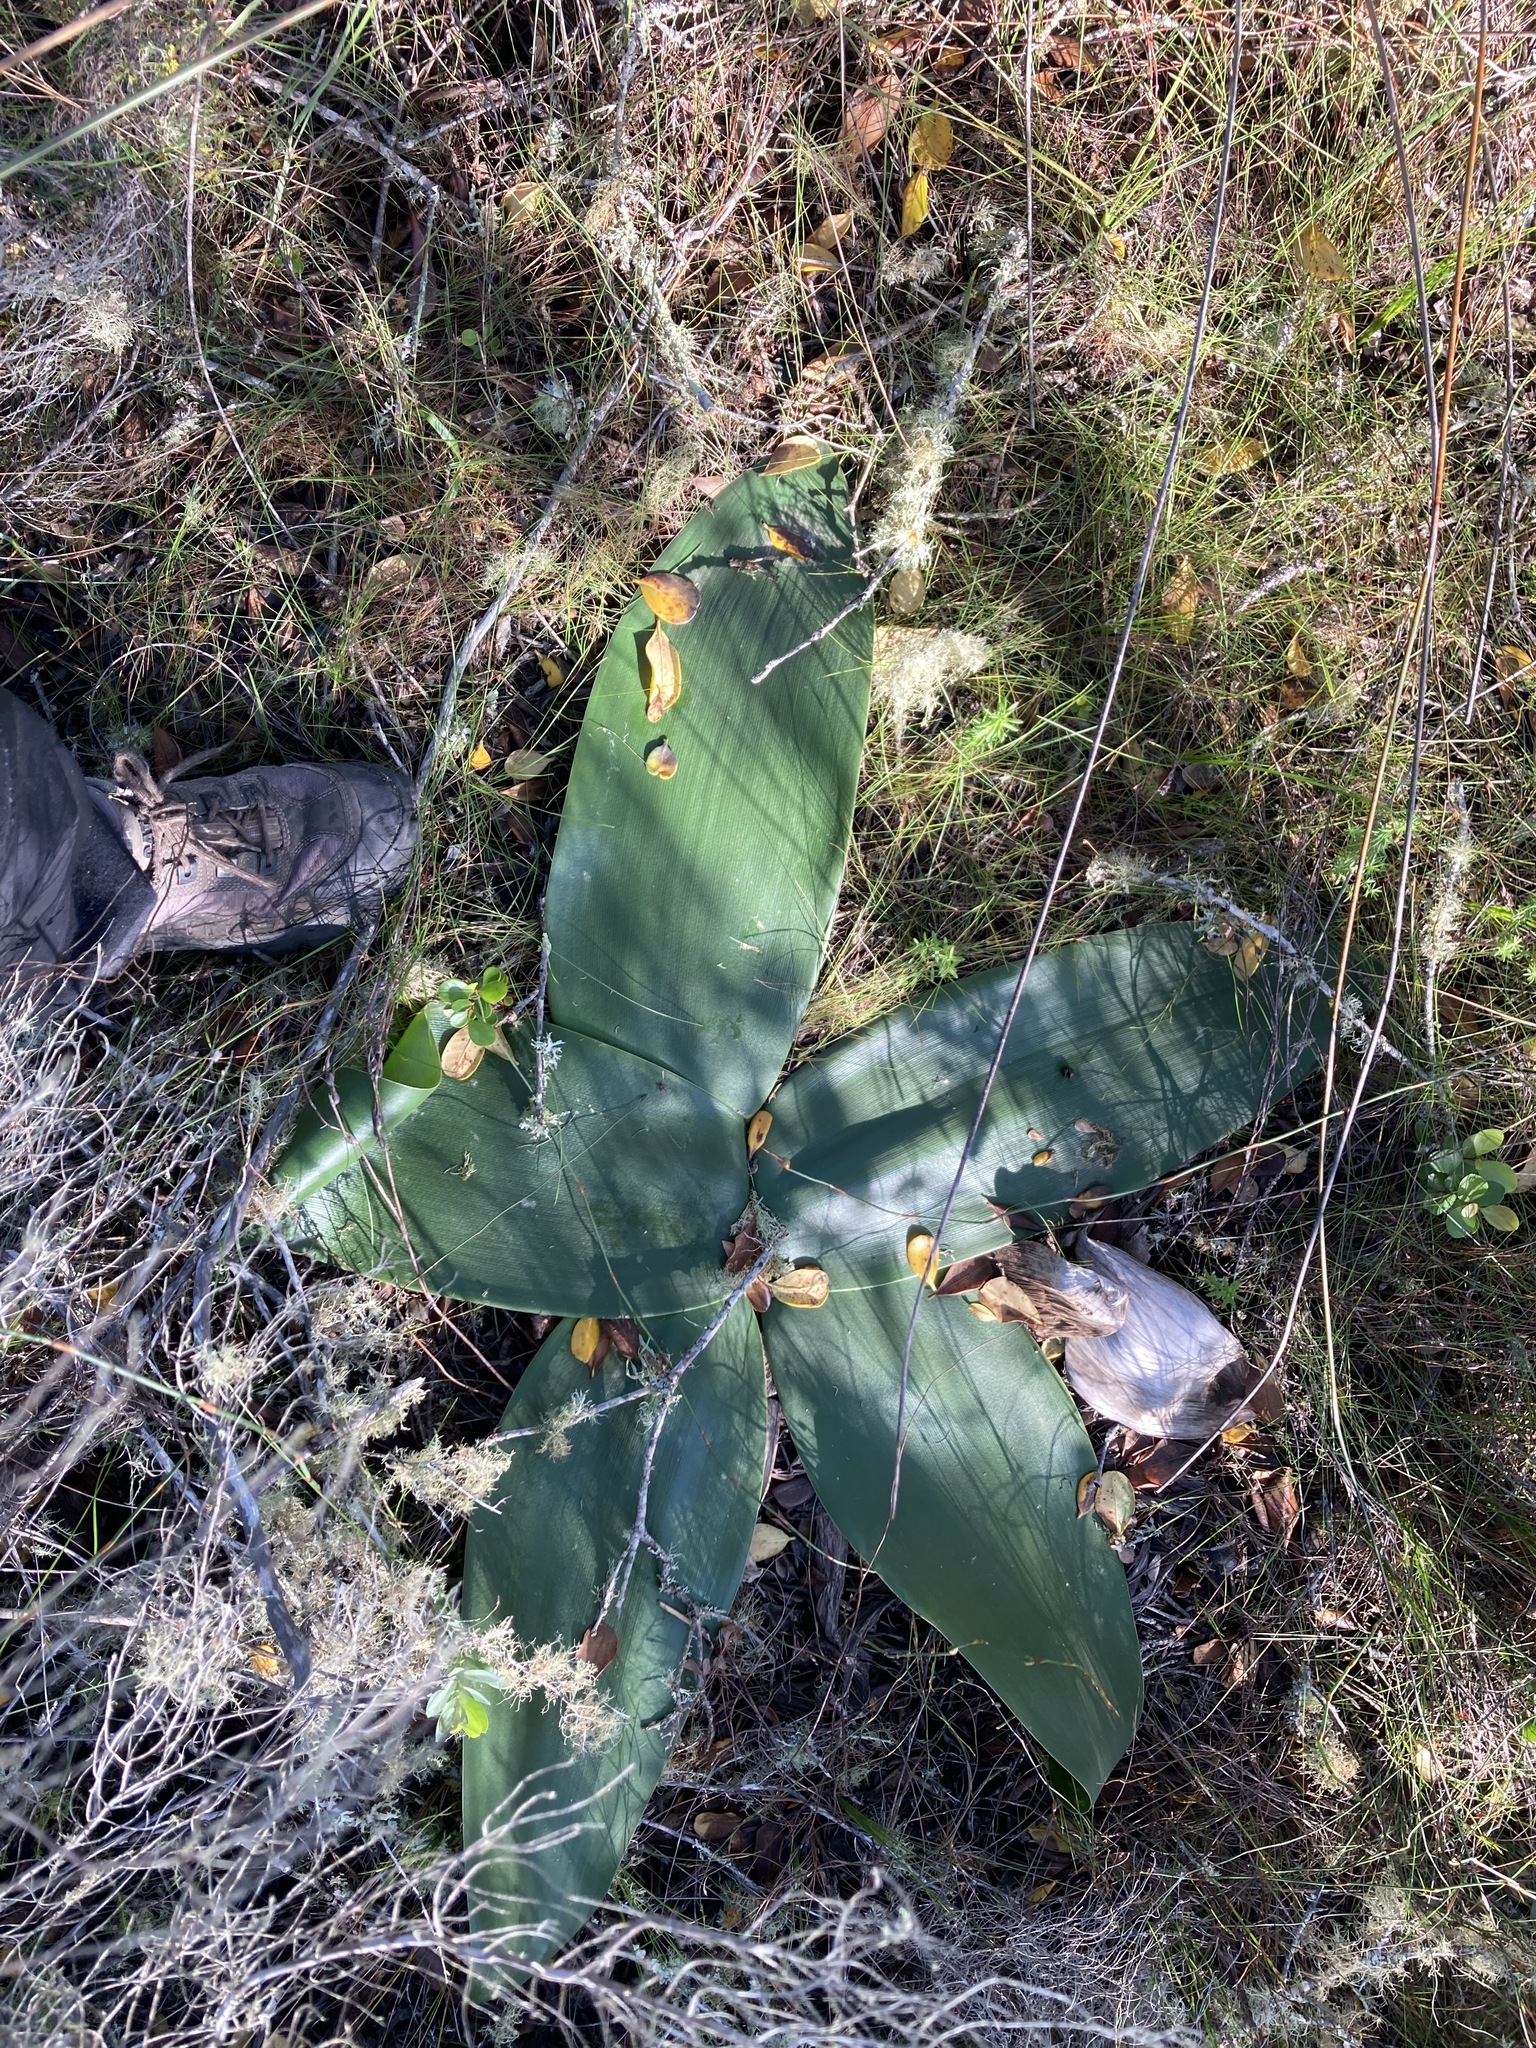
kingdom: Plantae
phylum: Tracheophyta
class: Liliopsida
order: Asparagales
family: Amaryllidaceae
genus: Brunsvigia
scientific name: Brunsvigia orientalis
